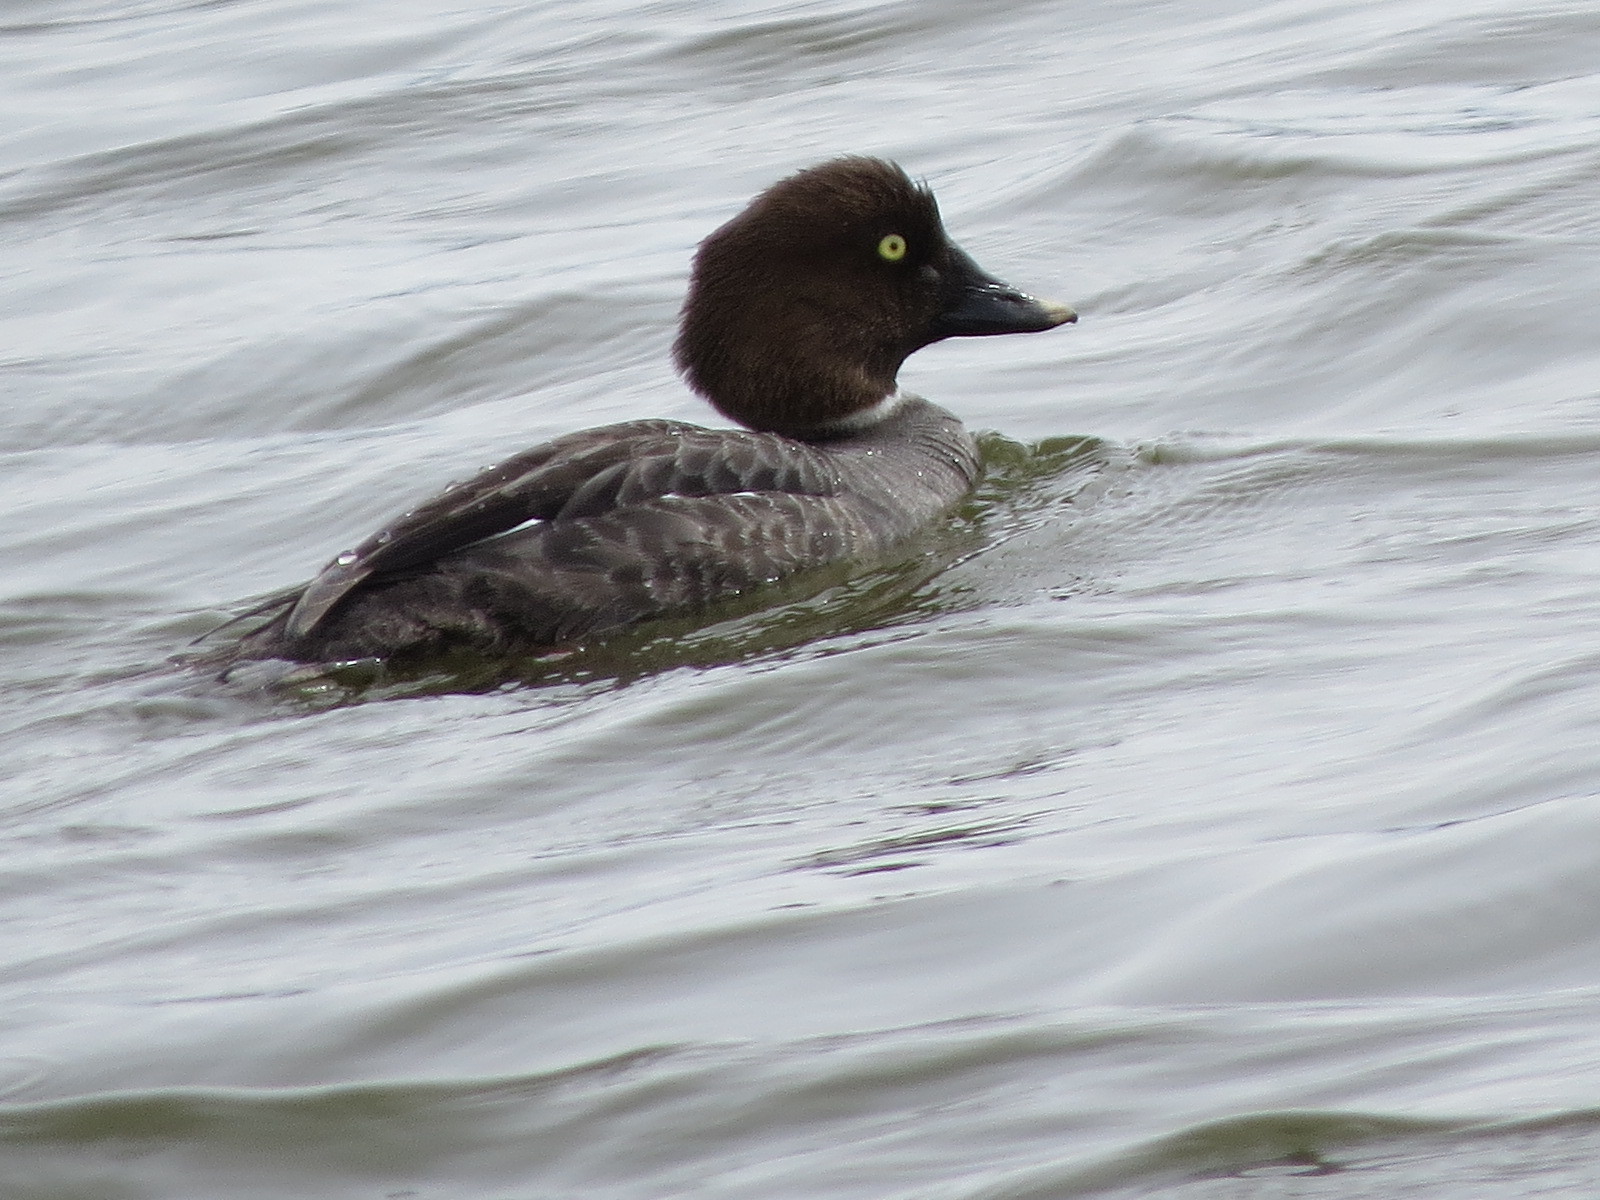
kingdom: Animalia
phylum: Chordata
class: Aves
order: Anseriformes
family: Anatidae
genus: Bucephala
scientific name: Bucephala clangula
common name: Common goldeneye
